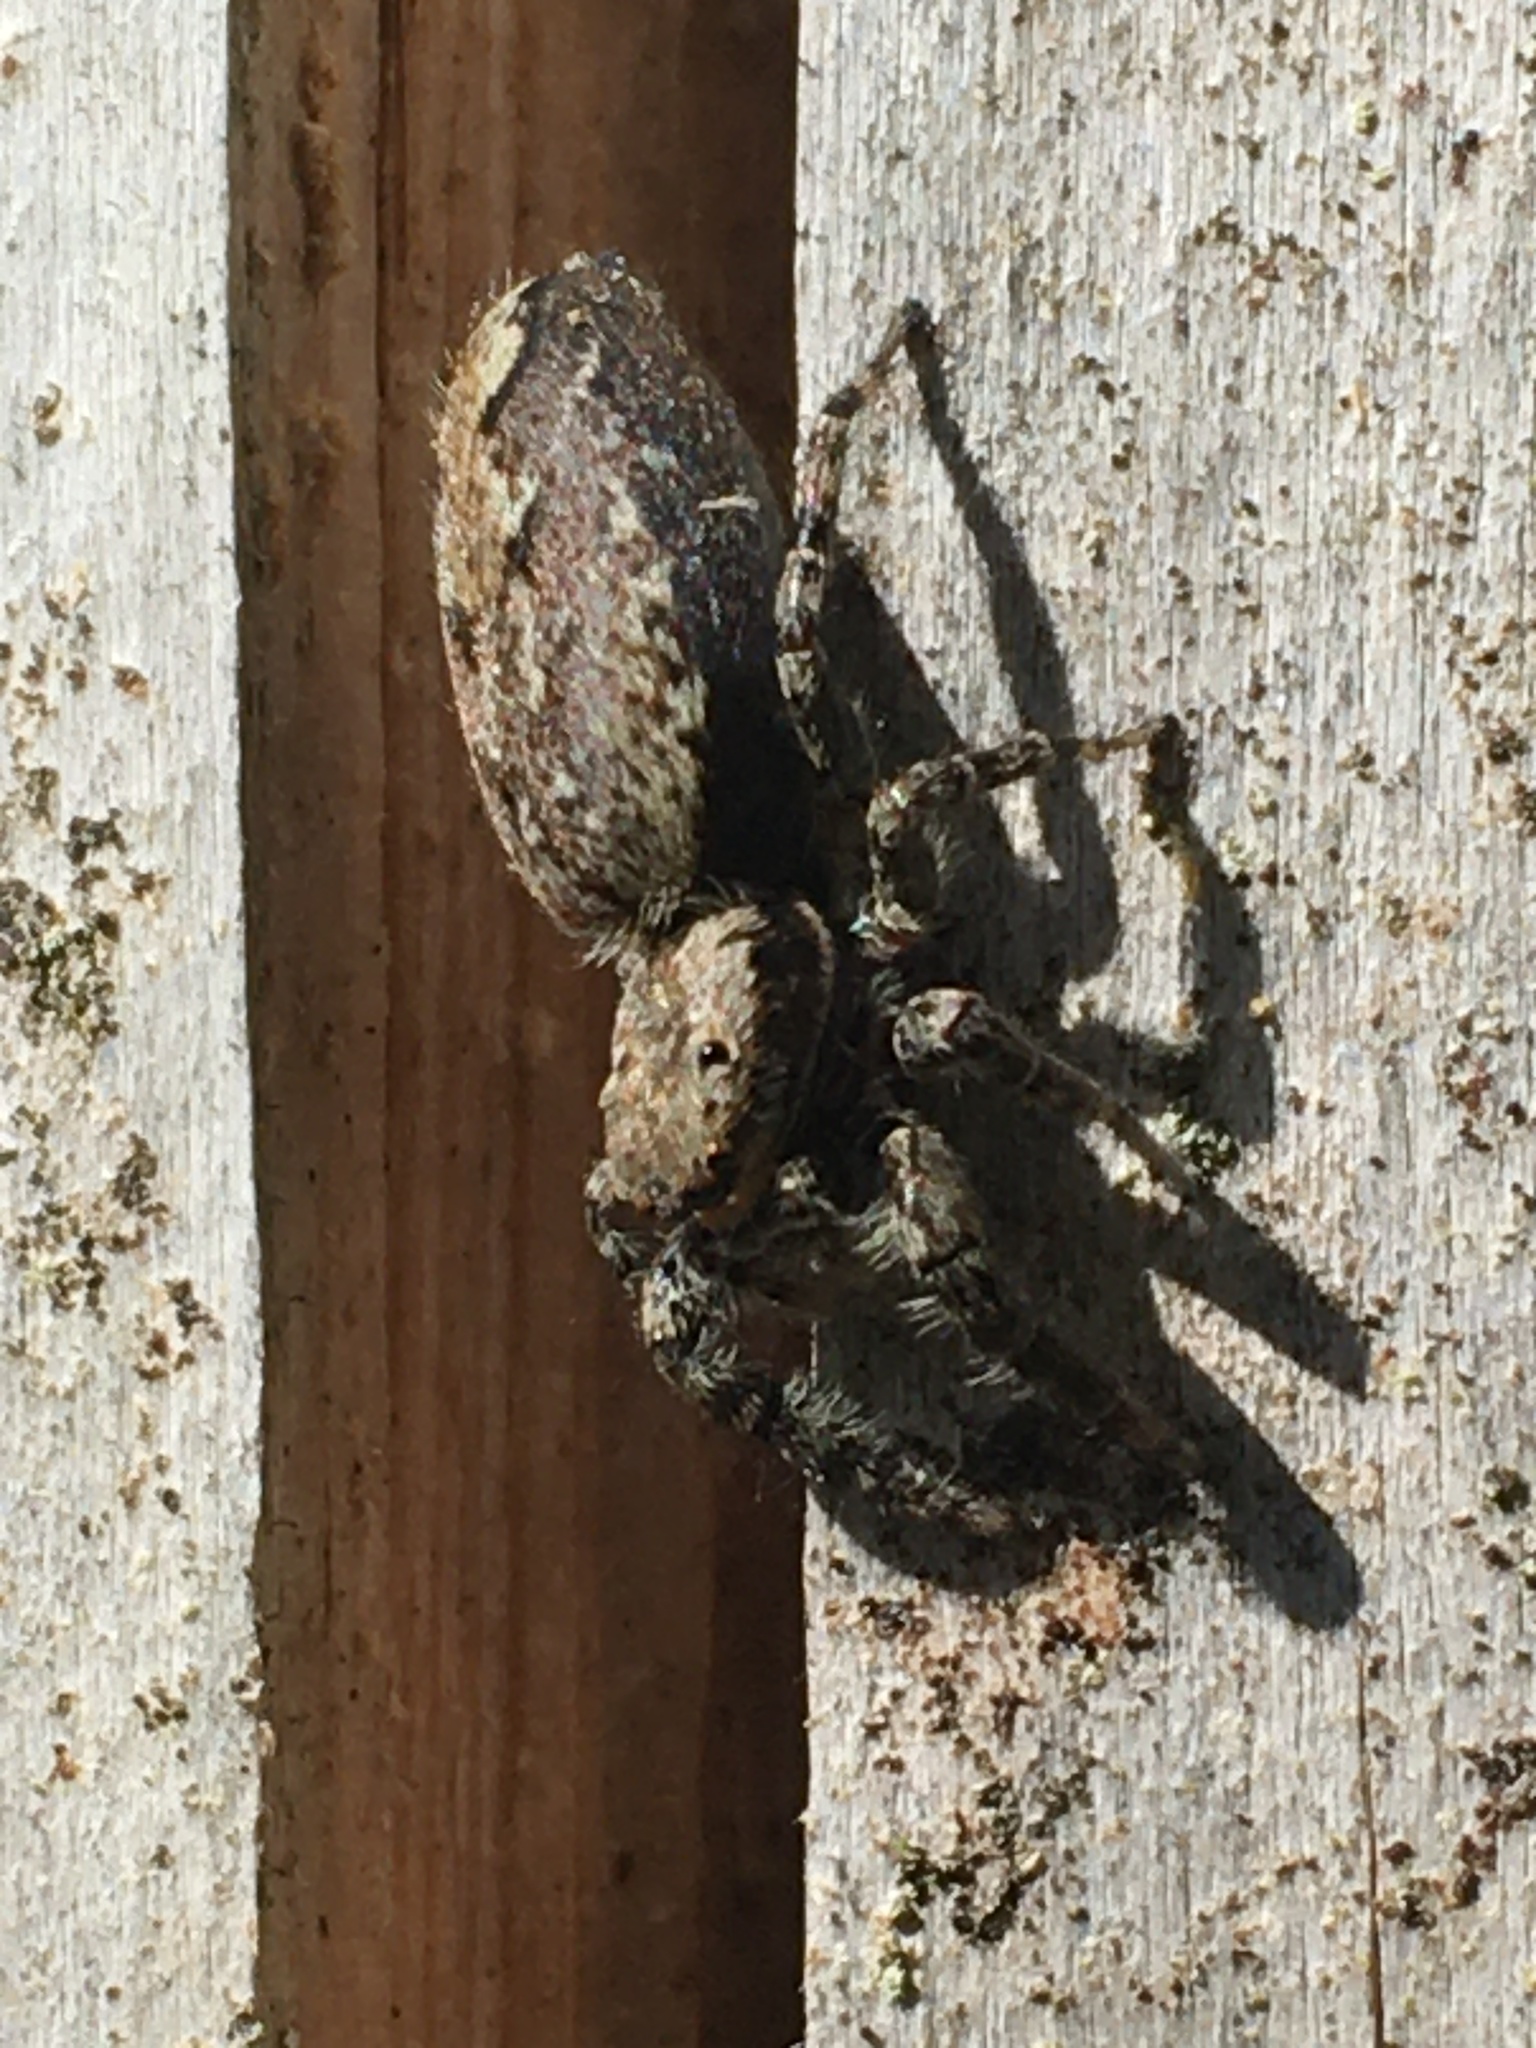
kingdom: Animalia
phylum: Arthropoda
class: Arachnida
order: Araneae
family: Salticidae
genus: Marpissa
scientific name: Marpissa muscosa
